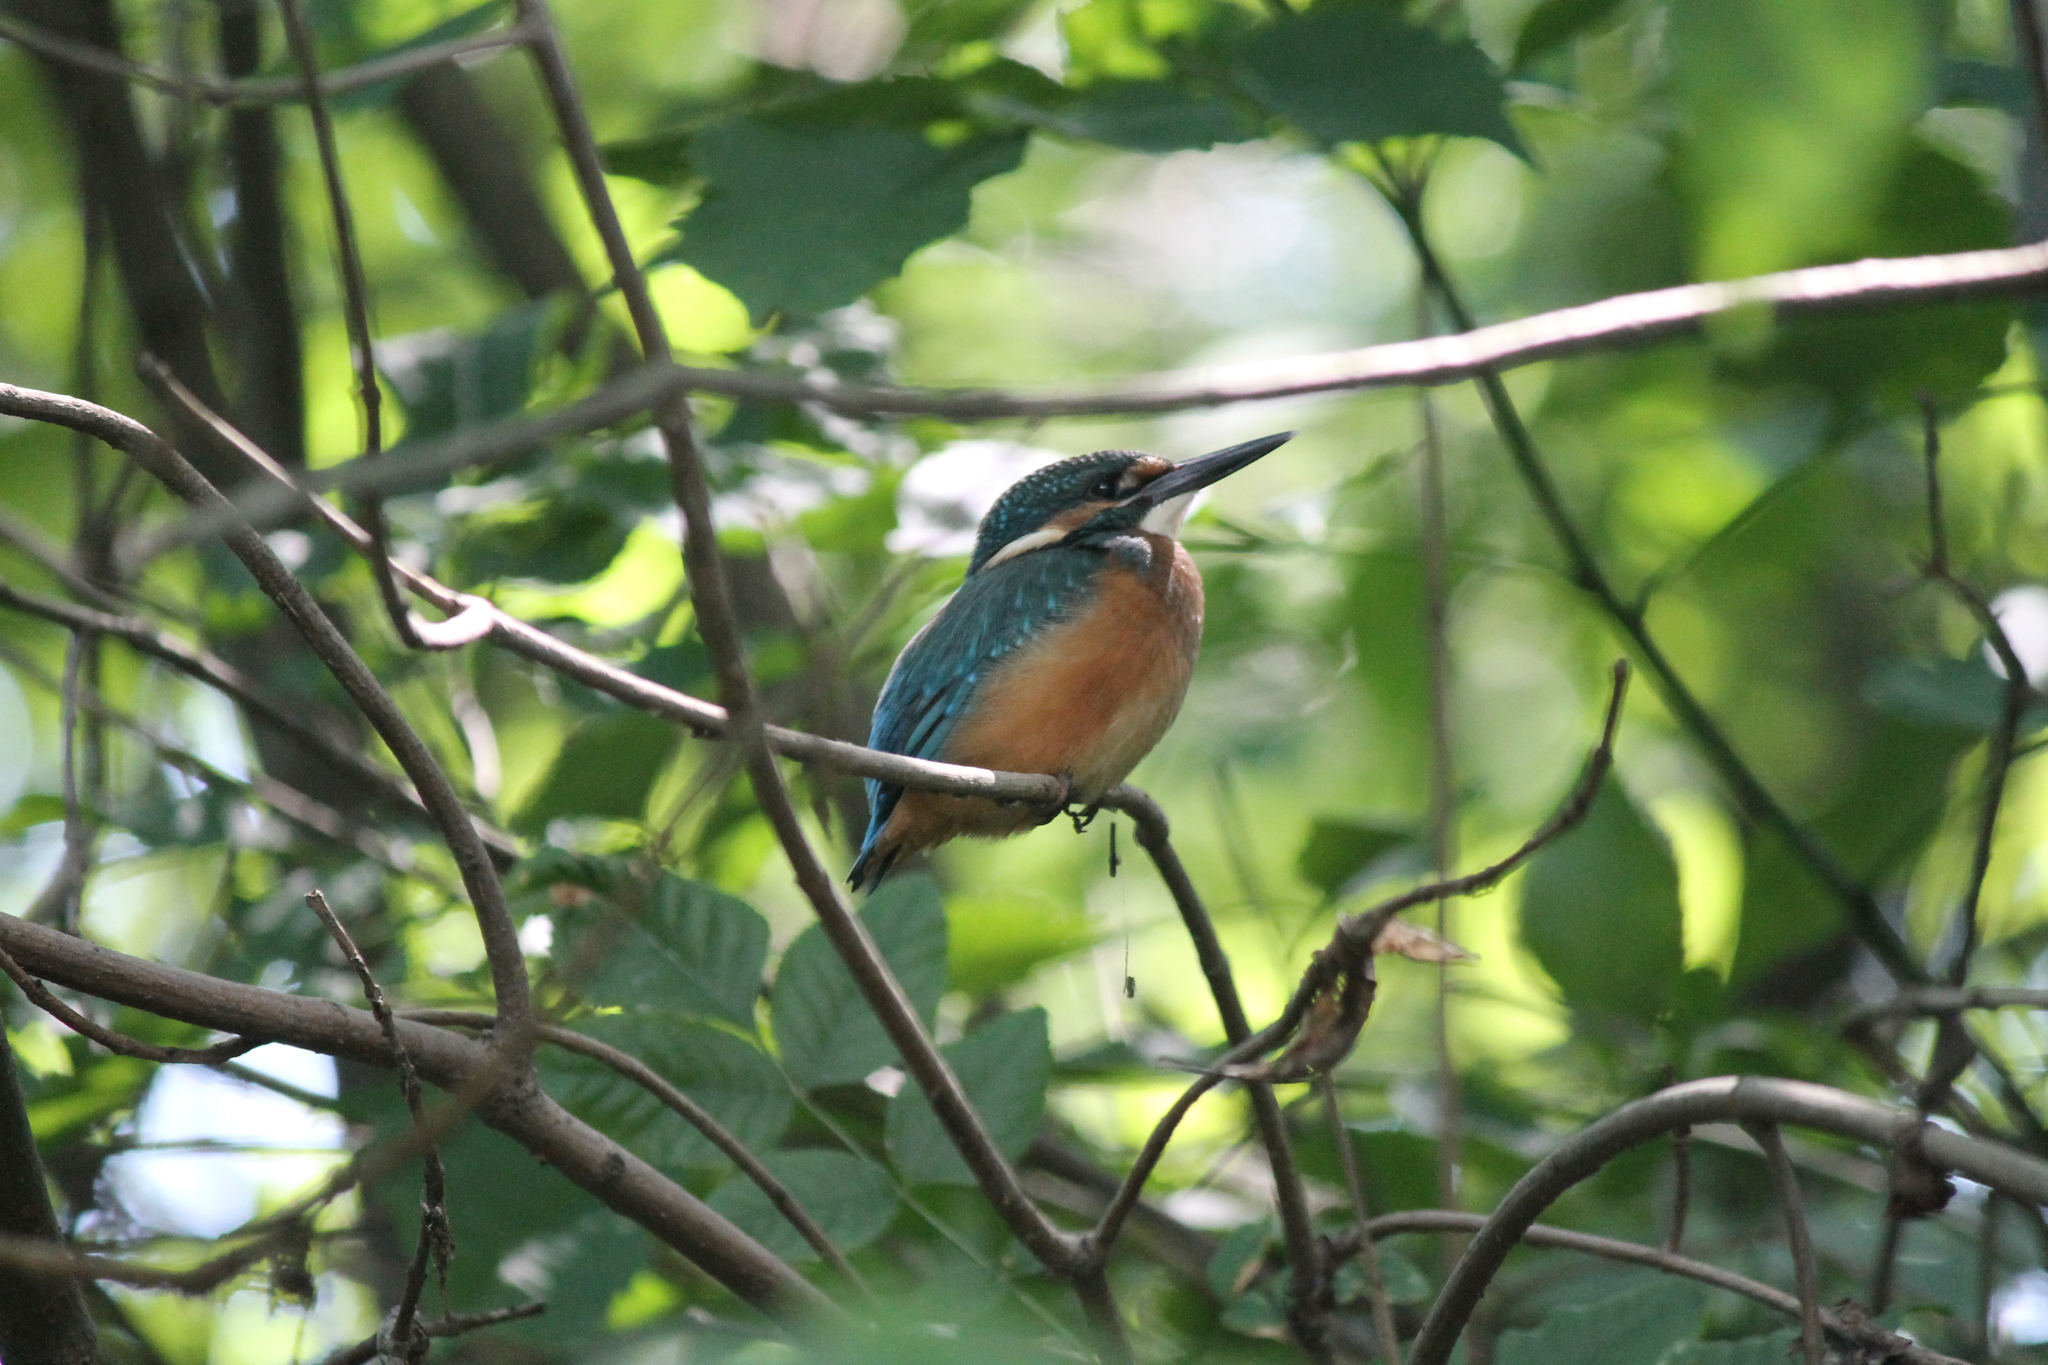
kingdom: Animalia
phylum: Chordata
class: Aves
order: Coraciiformes
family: Alcedinidae
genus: Alcedo
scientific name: Alcedo atthis
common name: Common kingfisher
